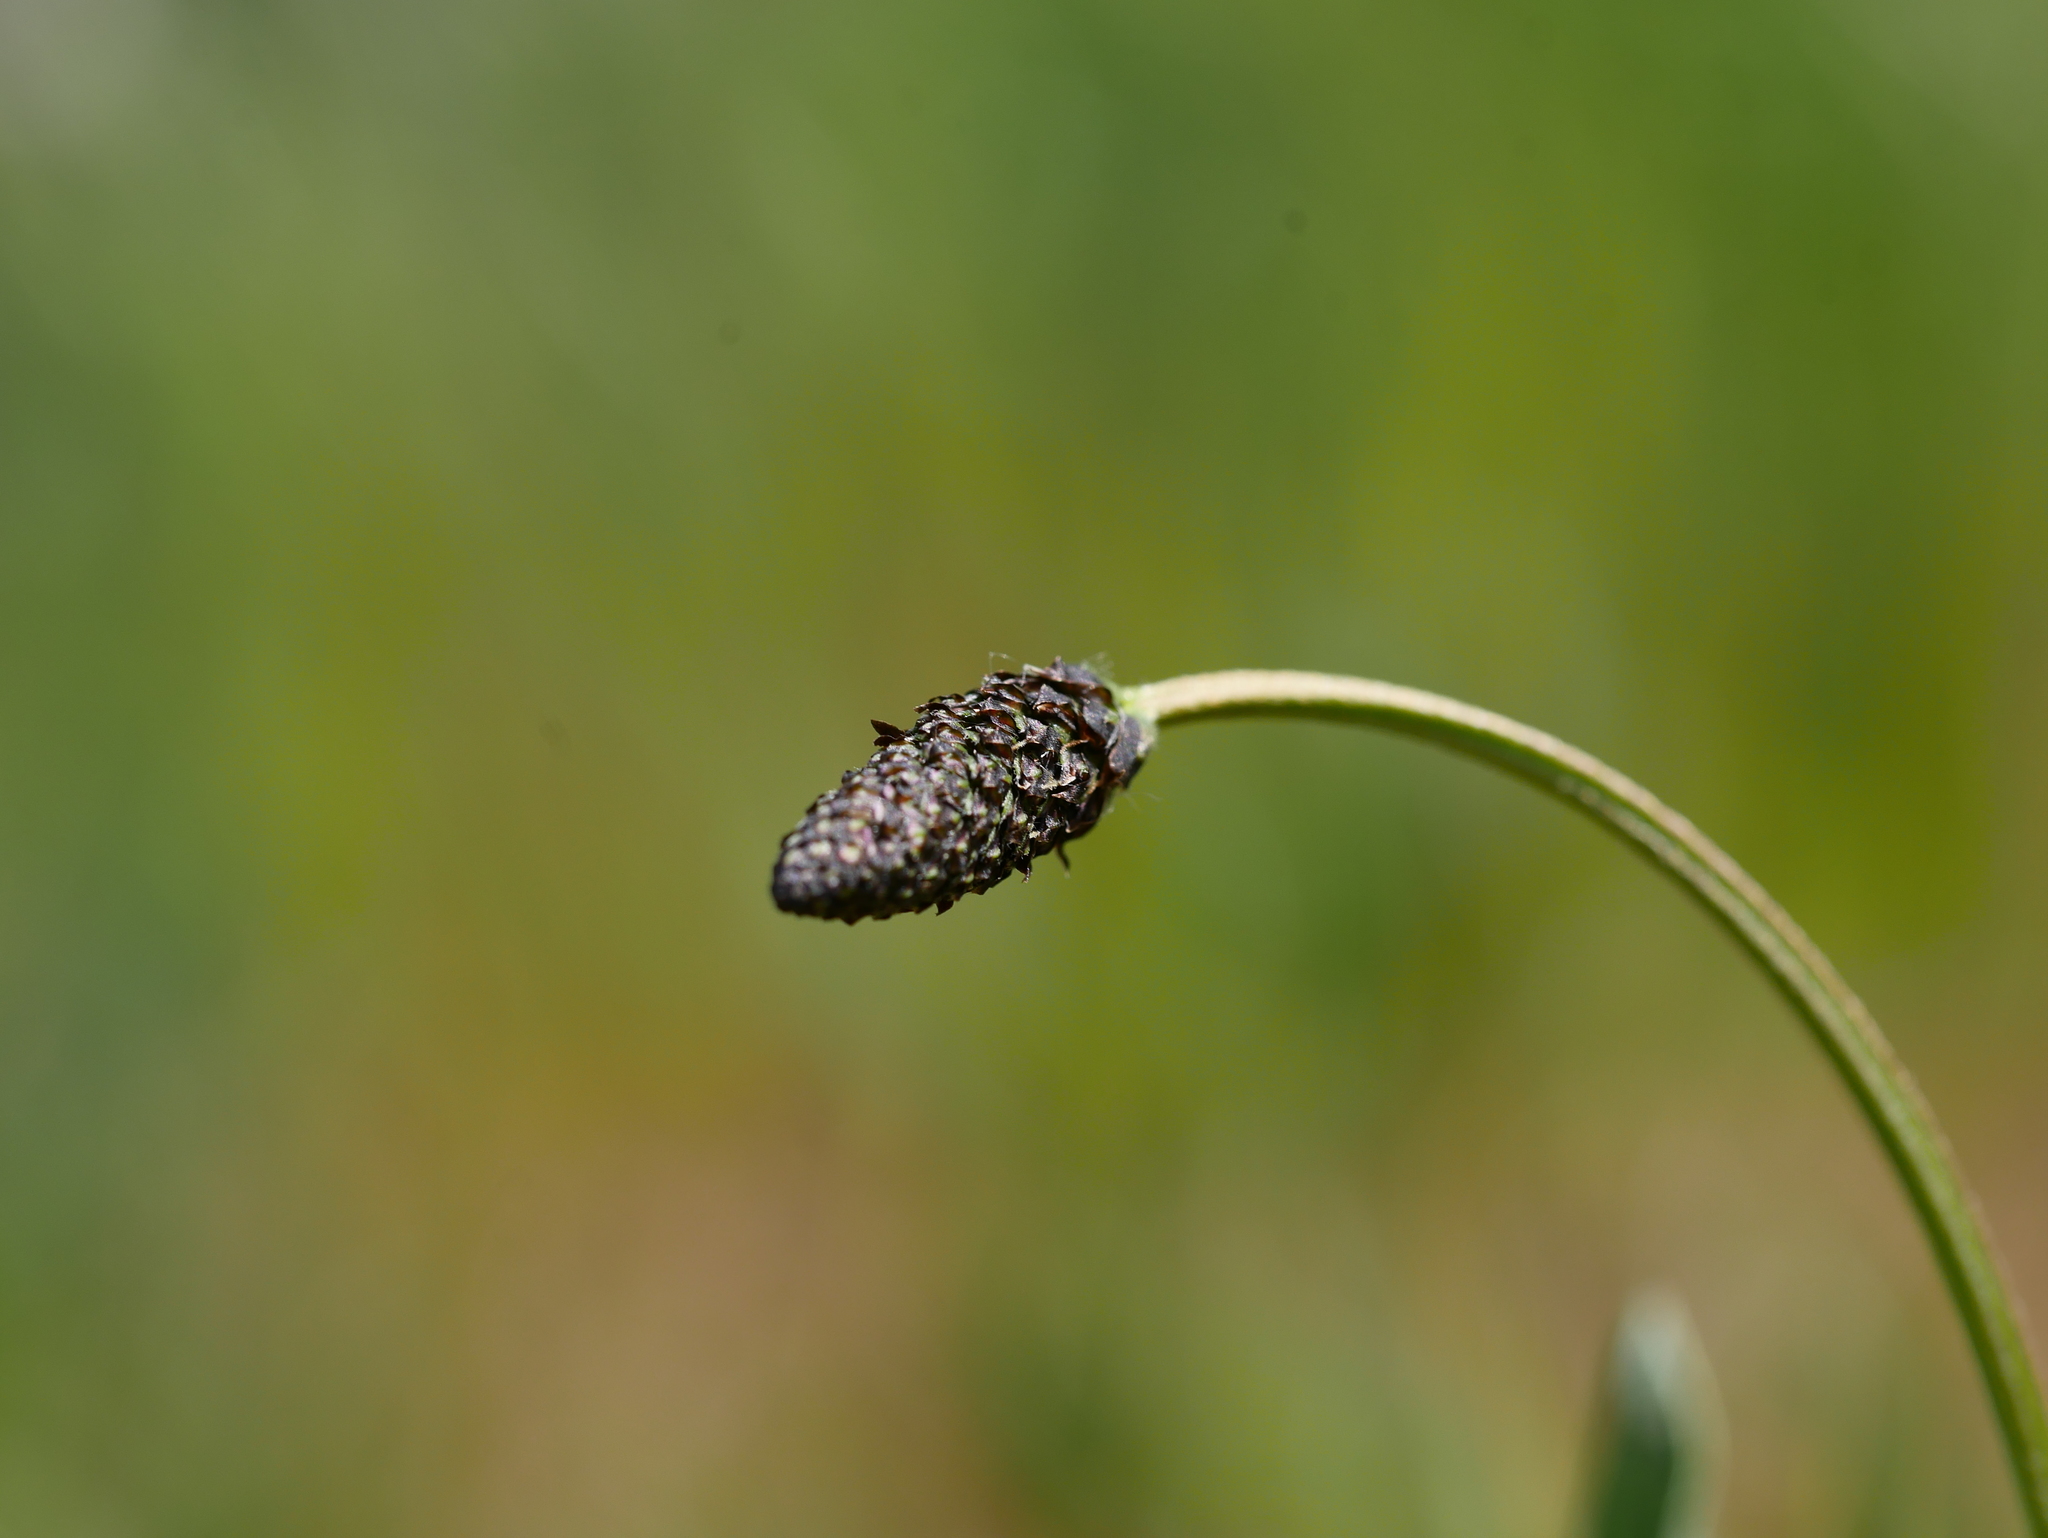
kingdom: Plantae
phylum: Tracheophyta
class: Magnoliopsida
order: Lamiales
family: Plantaginaceae
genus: Plantago
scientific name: Plantago lanceolata
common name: Ribwort plantain
